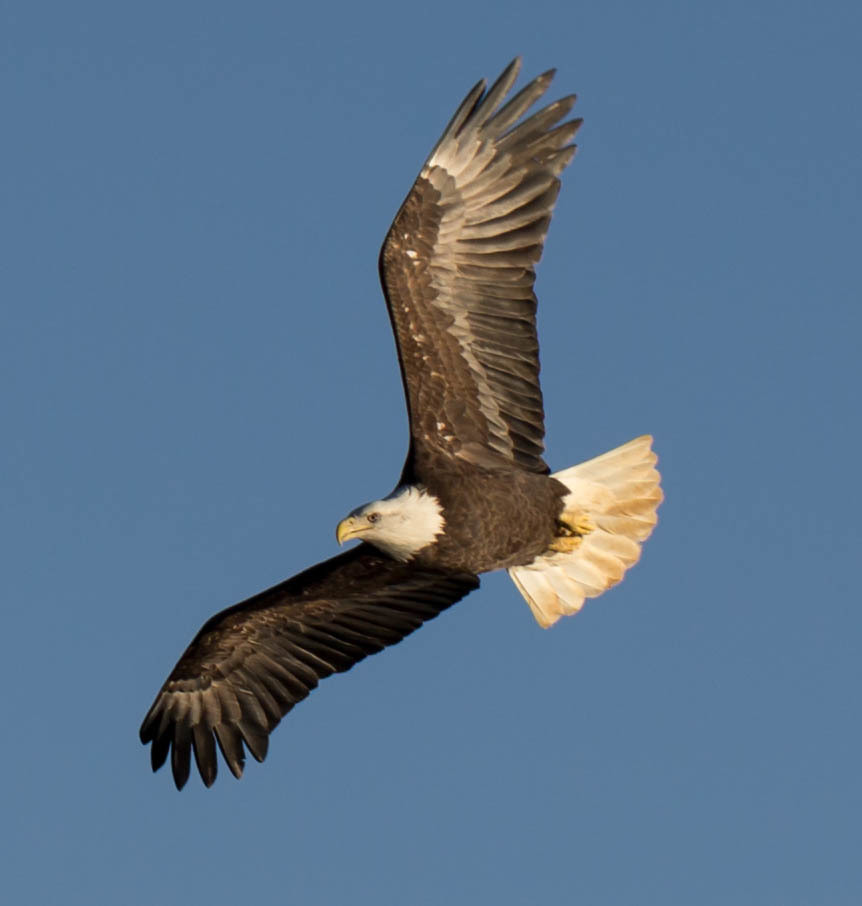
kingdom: Animalia
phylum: Chordata
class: Aves
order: Accipitriformes
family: Accipitridae
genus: Haliaeetus
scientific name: Haliaeetus leucocephalus
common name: Bald eagle
